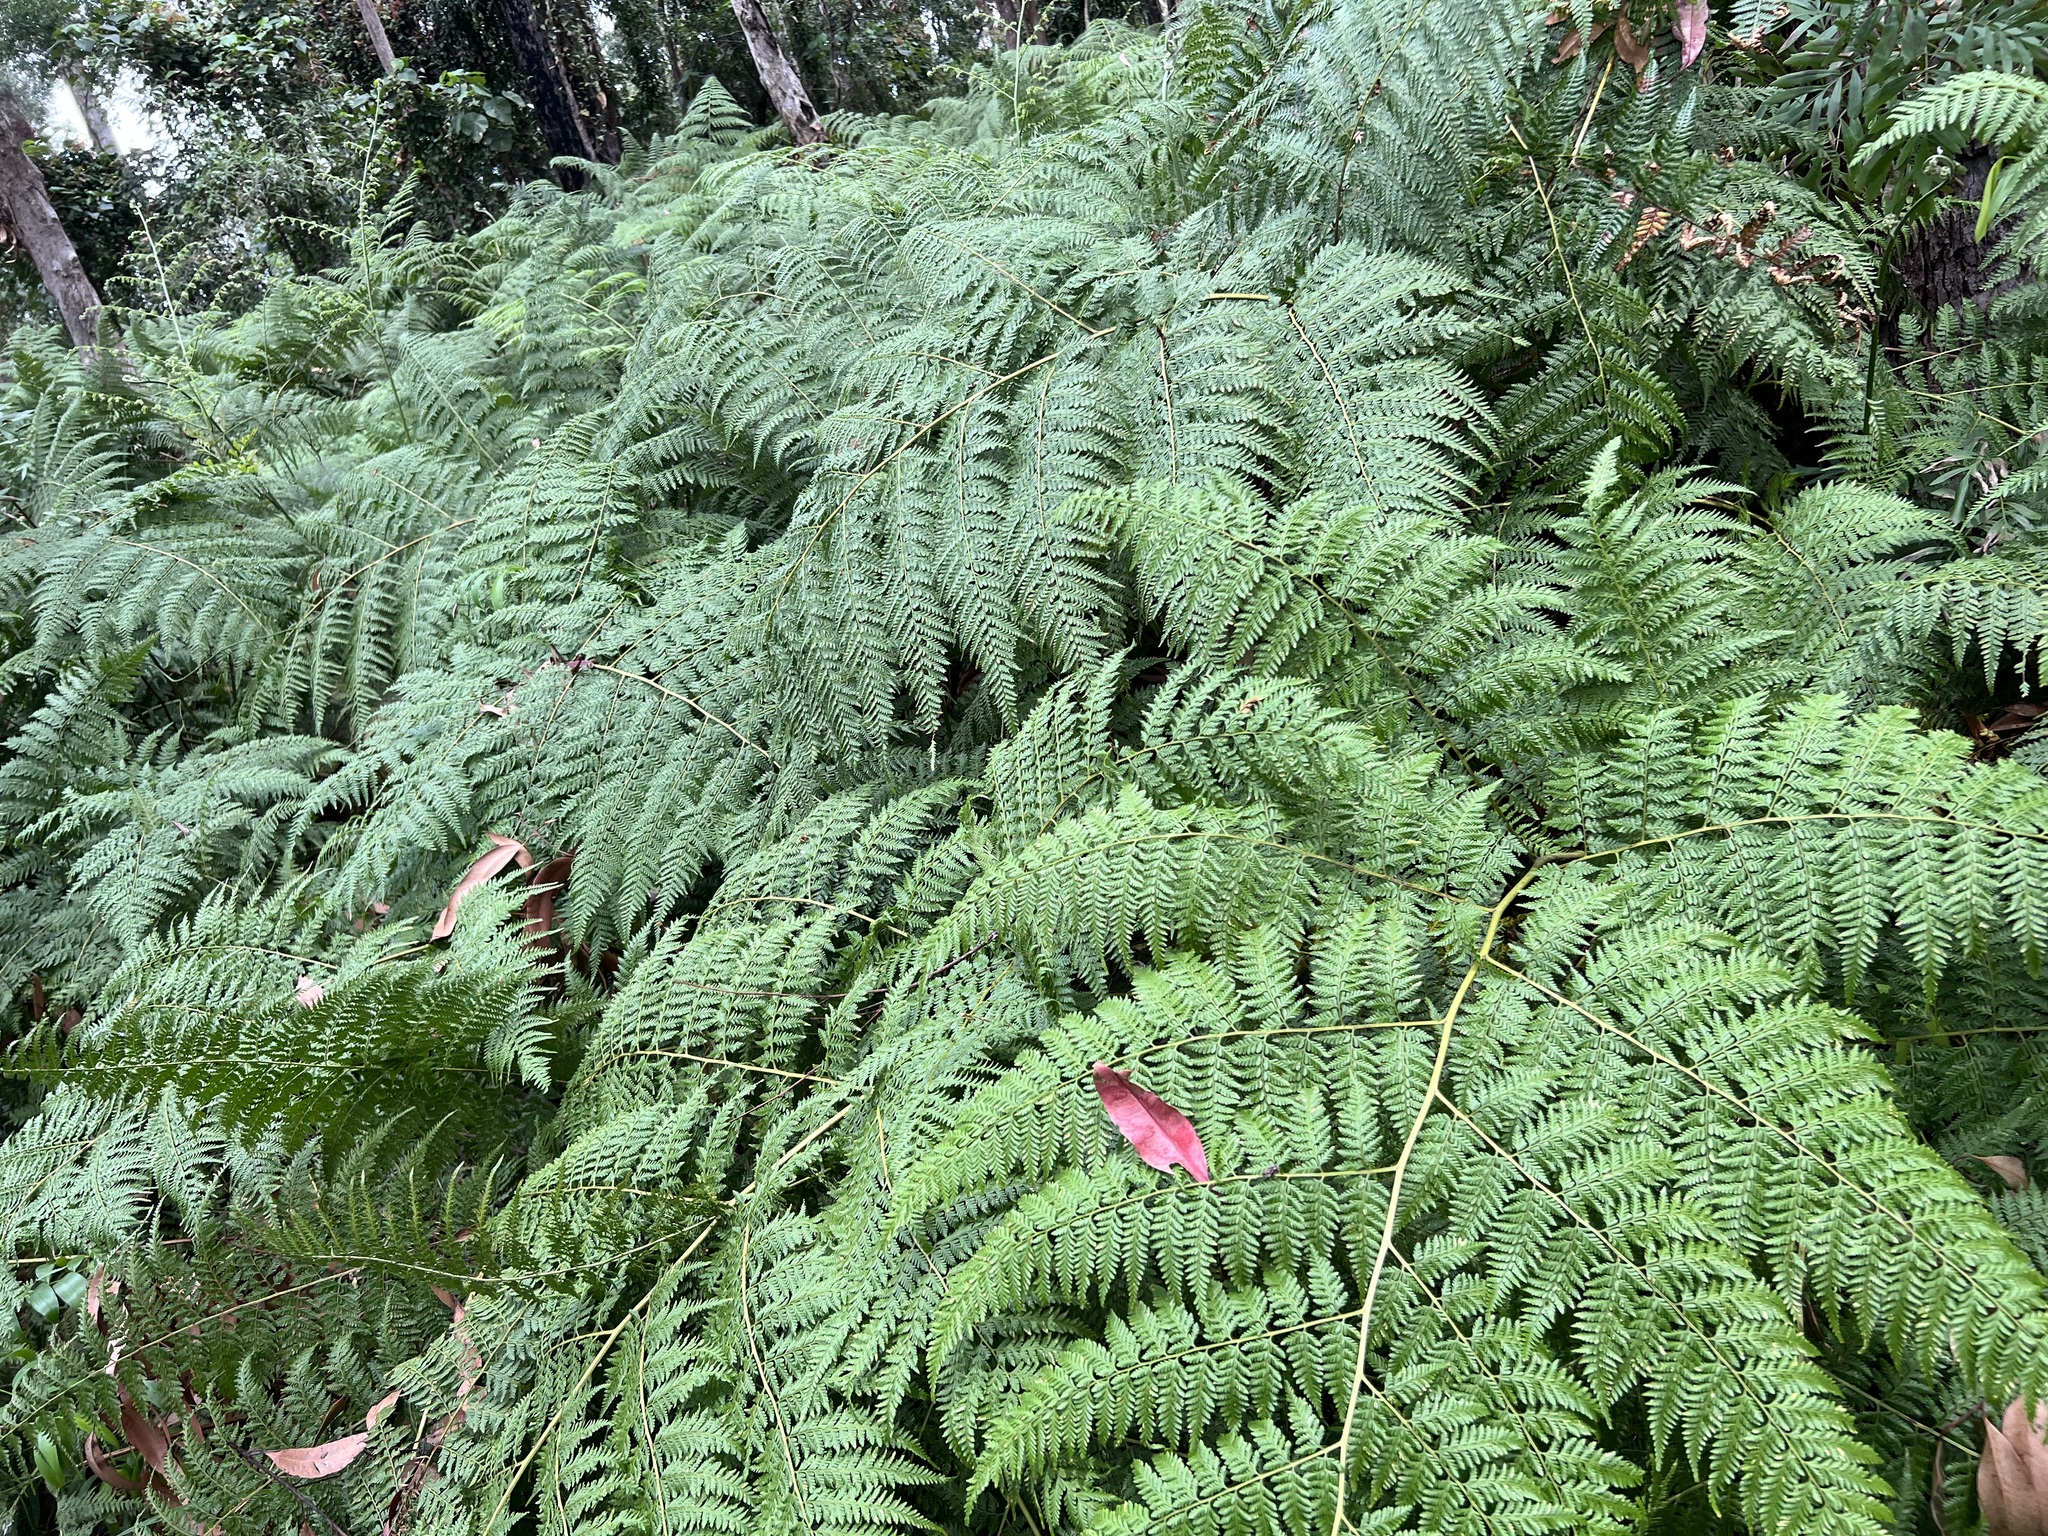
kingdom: Plantae
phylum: Tracheophyta
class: Polypodiopsida
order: Cyatheales
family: Dicksoniaceae
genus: Calochlaena
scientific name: Calochlaena dubia
